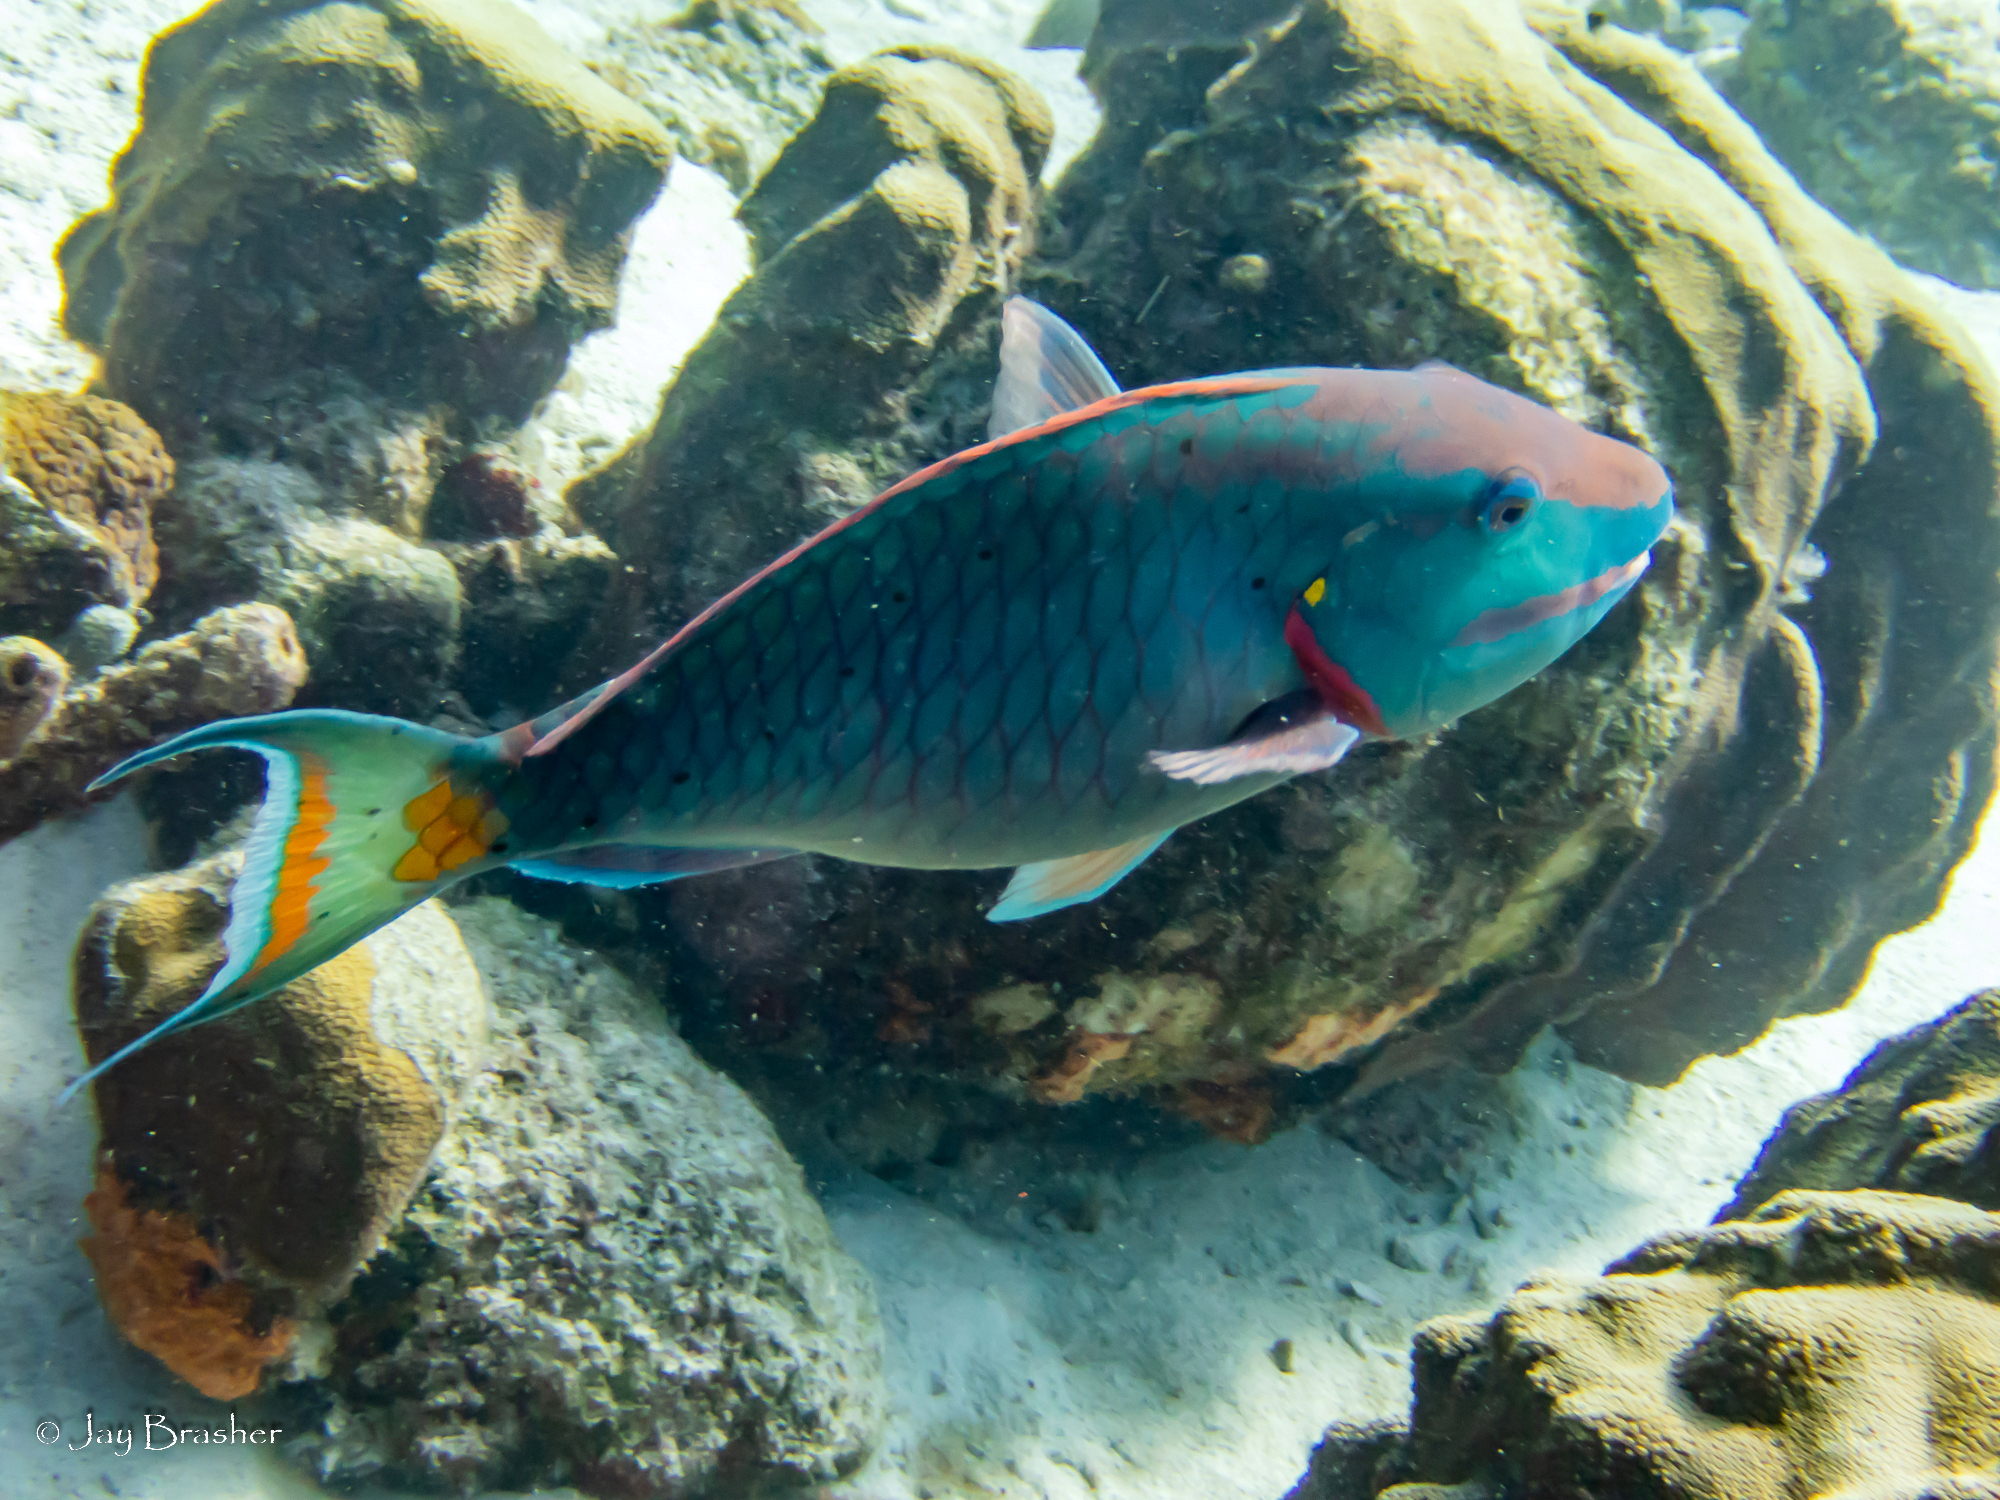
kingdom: Animalia
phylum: Chordata
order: Perciformes
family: Scaridae
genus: Sparisoma
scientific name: Sparisoma viride
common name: Stoplight parrotfish
